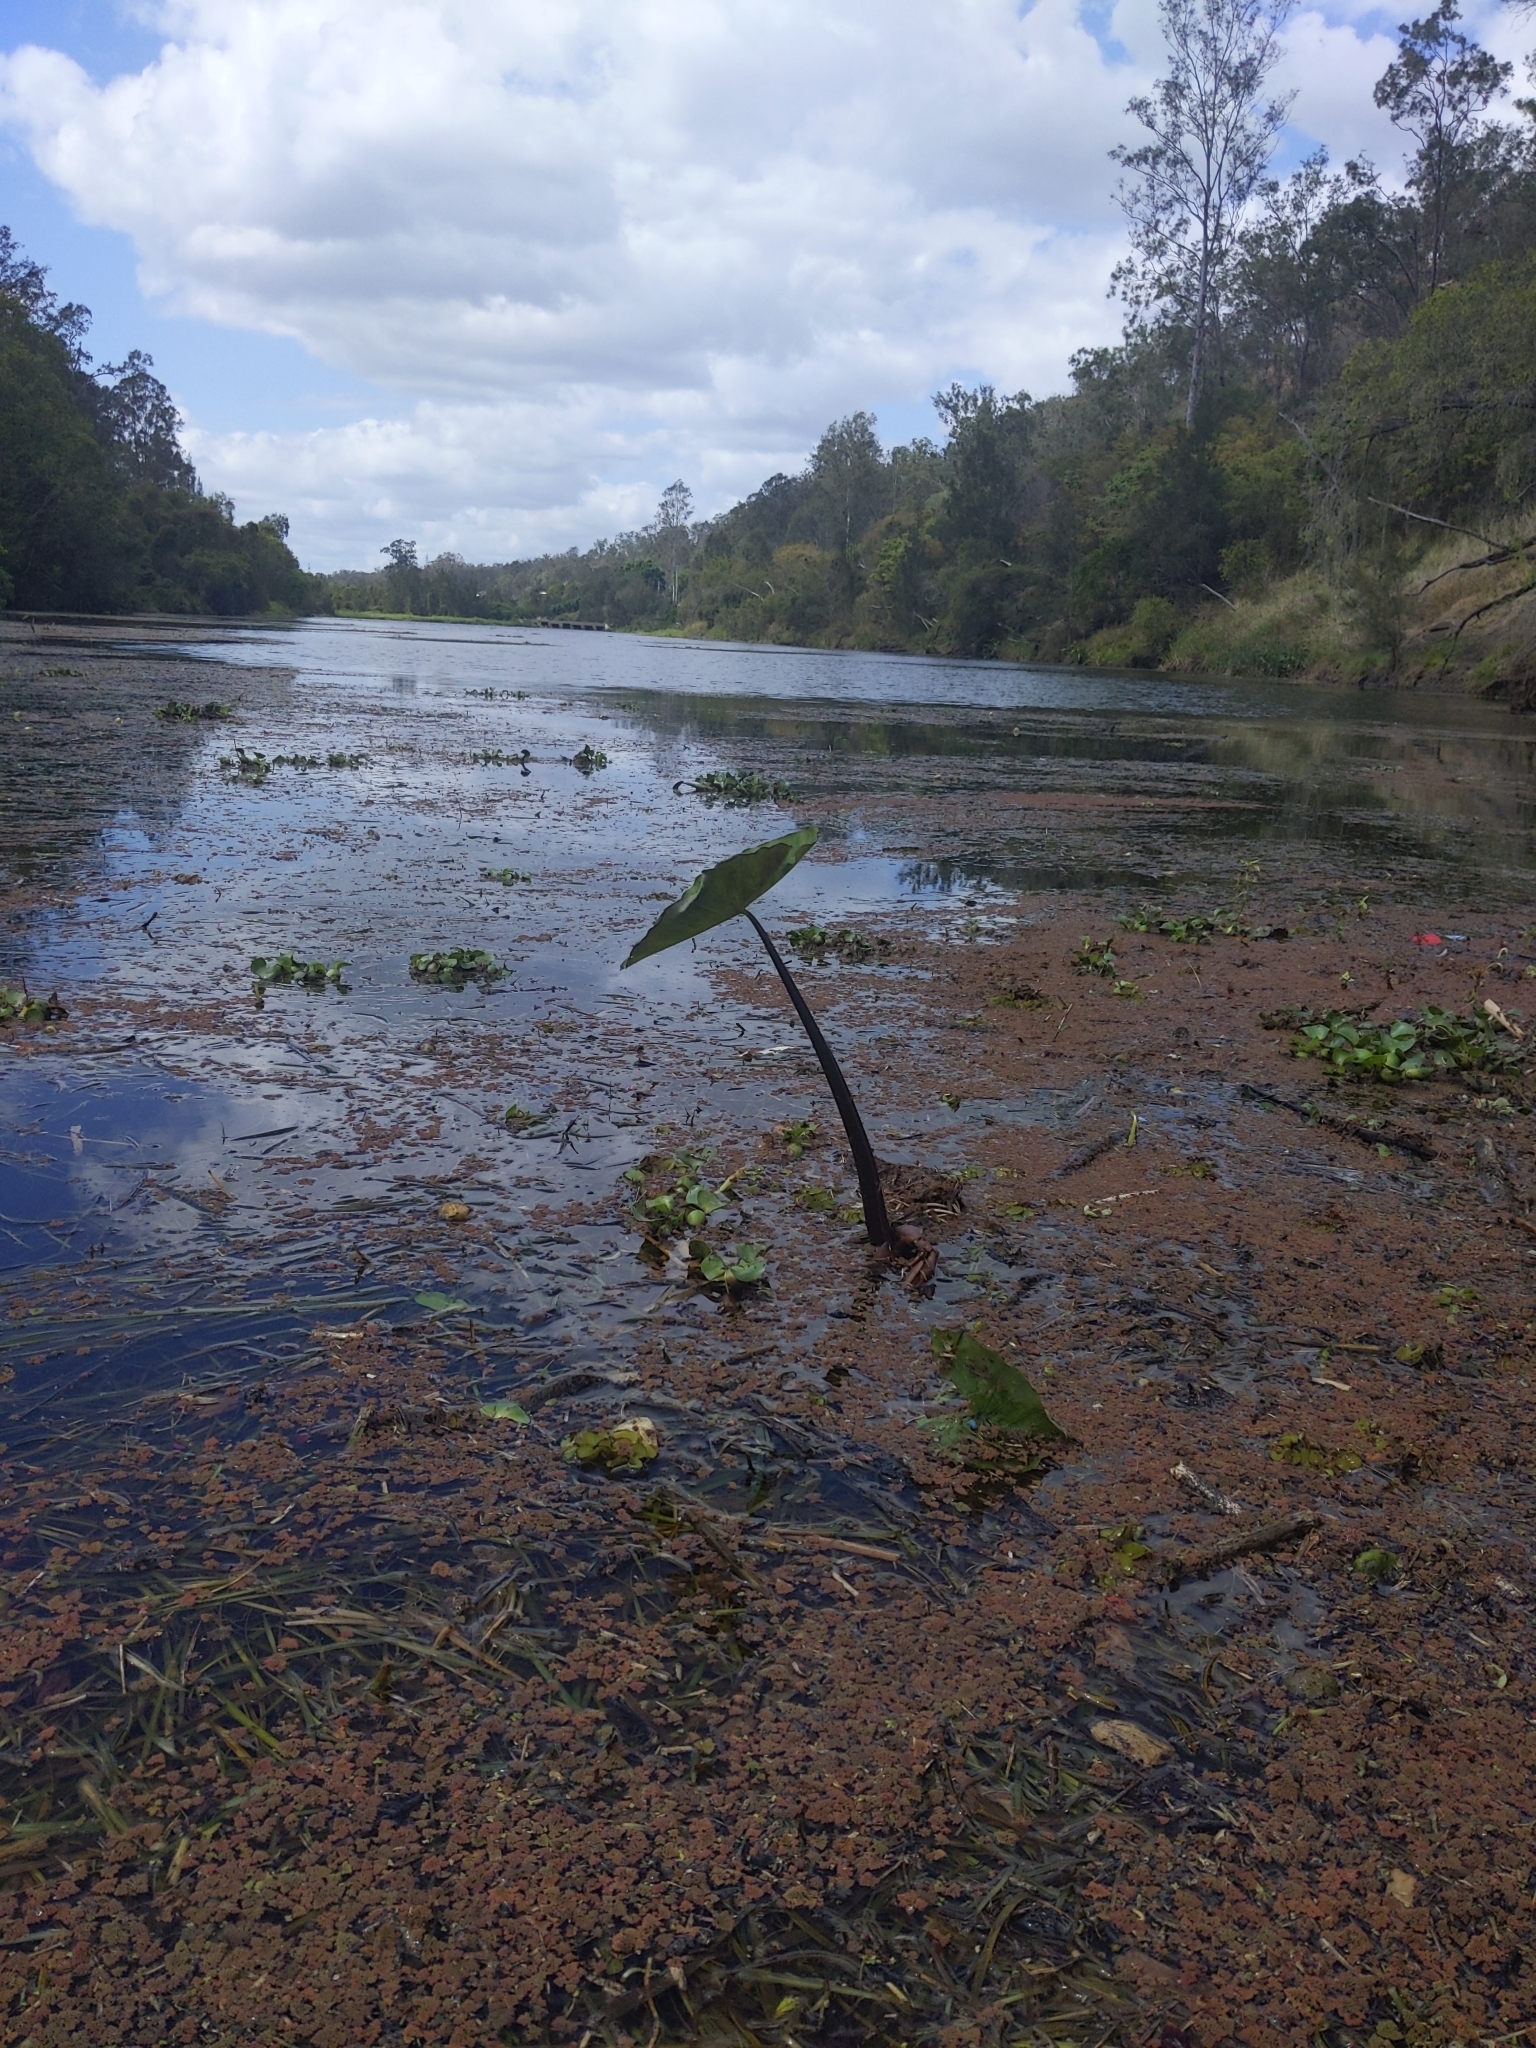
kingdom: Plantae
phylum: Tracheophyta
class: Liliopsida
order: Alismatales
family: Araceae
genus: Colocasia
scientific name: Colocasia esculenta
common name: Taro
